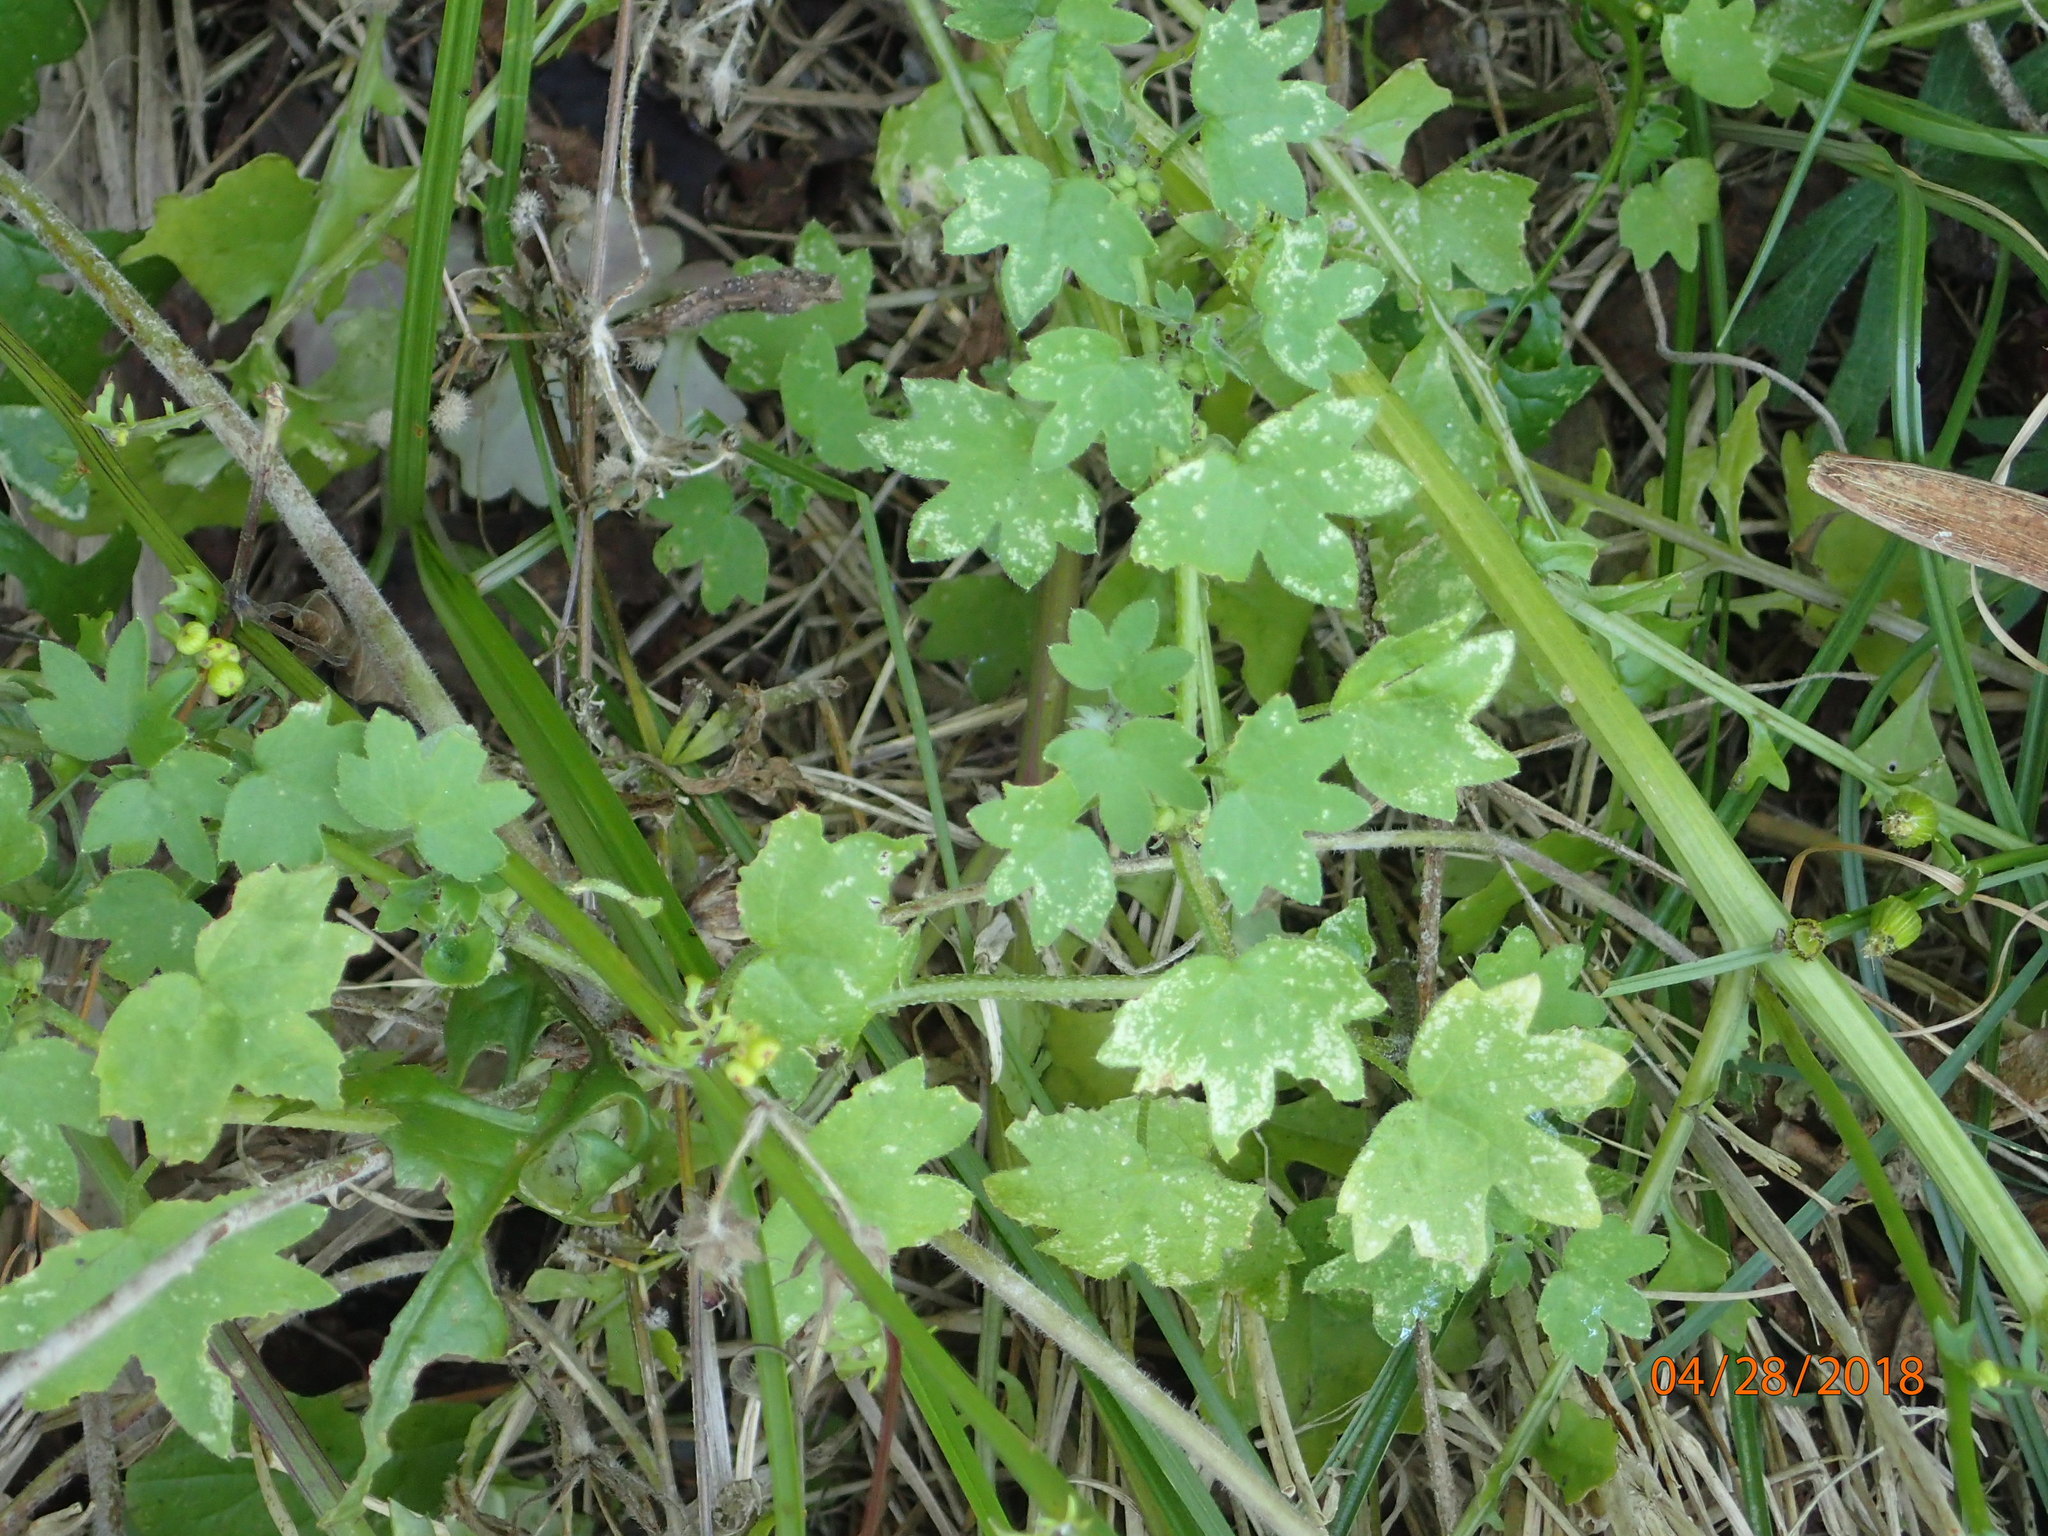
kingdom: Plantae
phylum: Tracheophyta
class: Magnoliopsida
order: Apiales
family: Apiaceae
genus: Bowlesia
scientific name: Bowlesia incana
